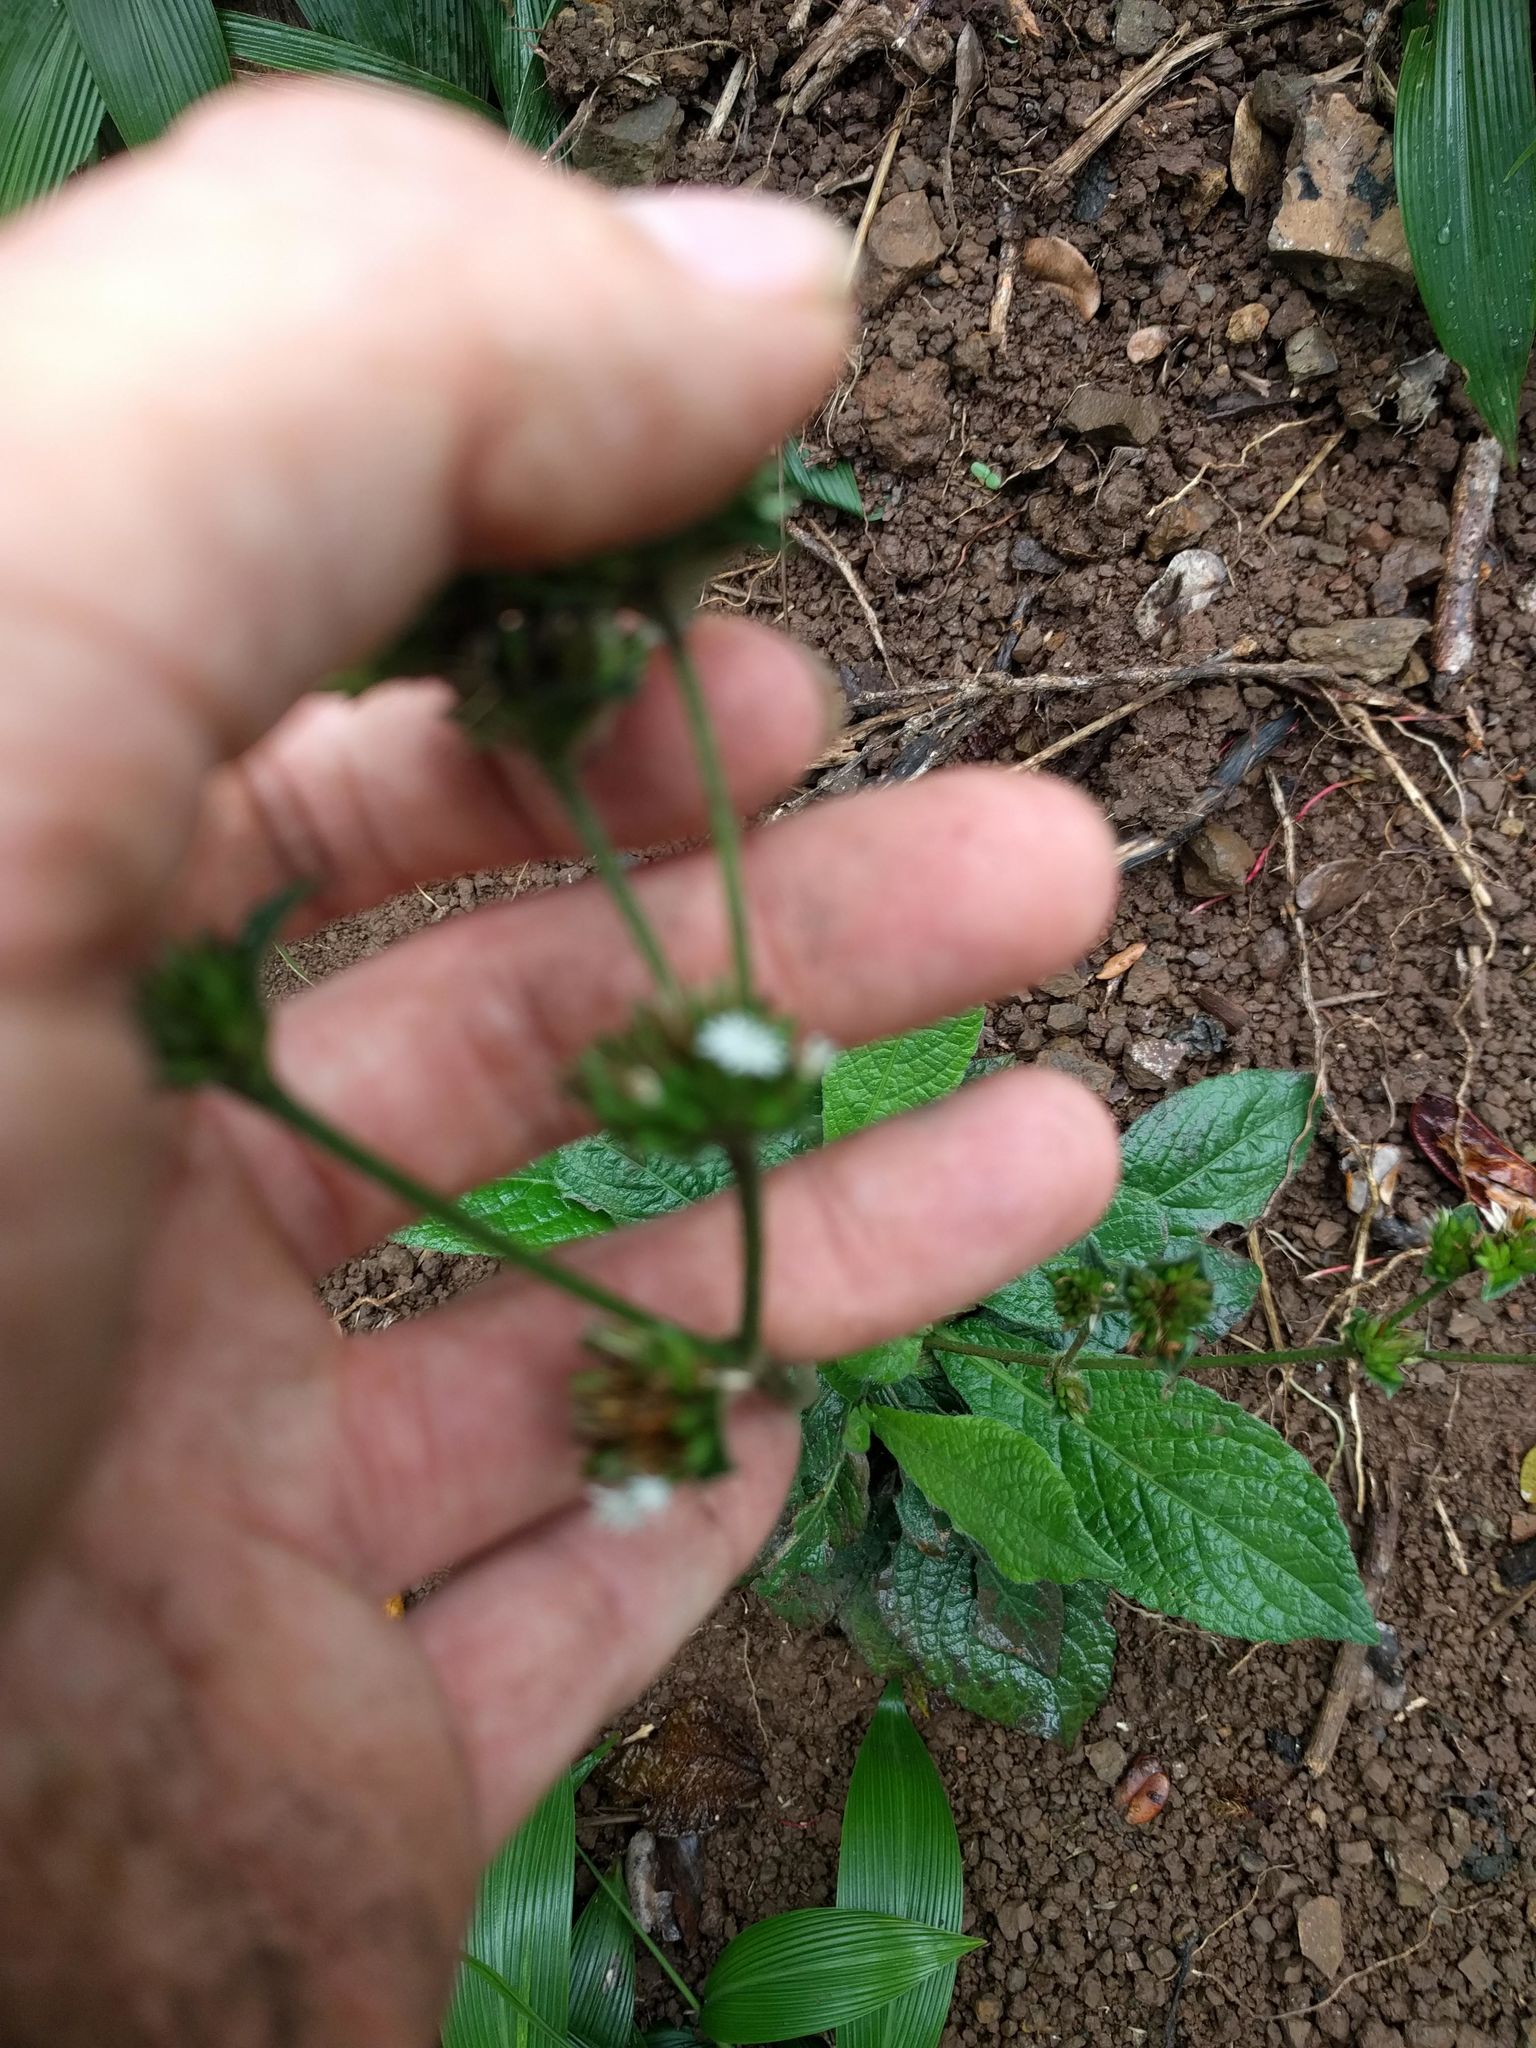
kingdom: Plantae
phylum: Tracheophyta
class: Magnoliopsida
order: Asterales
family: Asteraceae
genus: Elephantopus
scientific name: Elephantopus mollis
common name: Soft elephantsfoot
